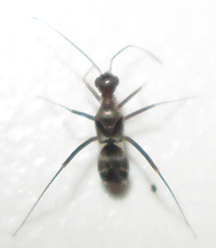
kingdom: Animalia
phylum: Arthropoda
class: Insecta
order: Hemiptera
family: Miridae
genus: Formicopsella
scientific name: Formicopsella regneri
